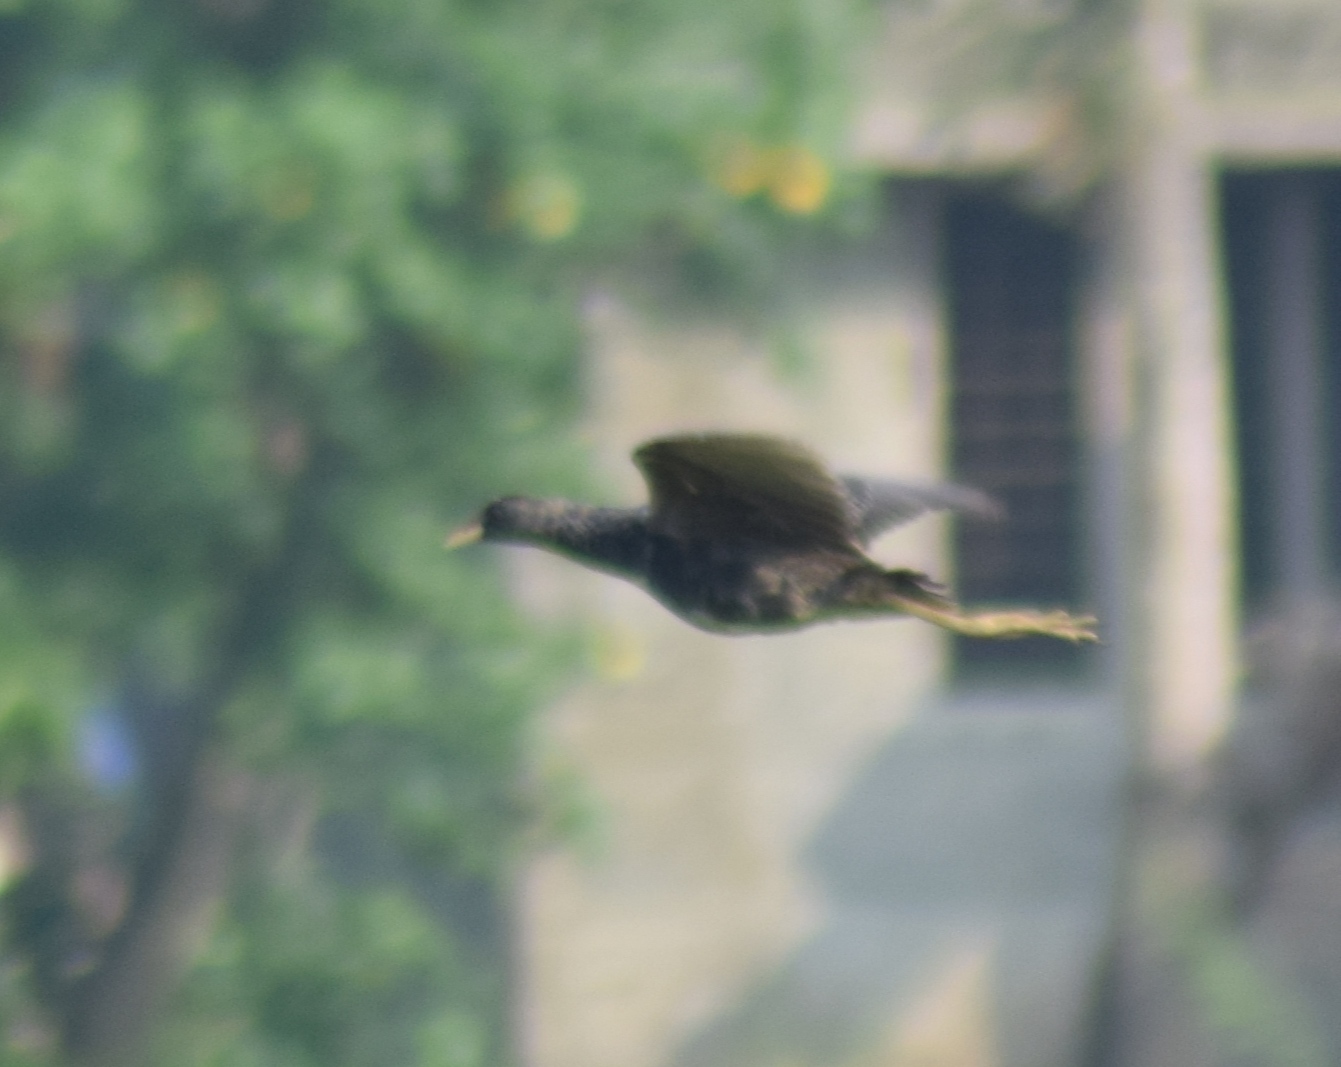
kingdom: Animalia
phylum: Chordata
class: Aves
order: Gruiformes
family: Rallidae
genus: Gallicrex
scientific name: Gallicrex cinerea
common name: Watercock
